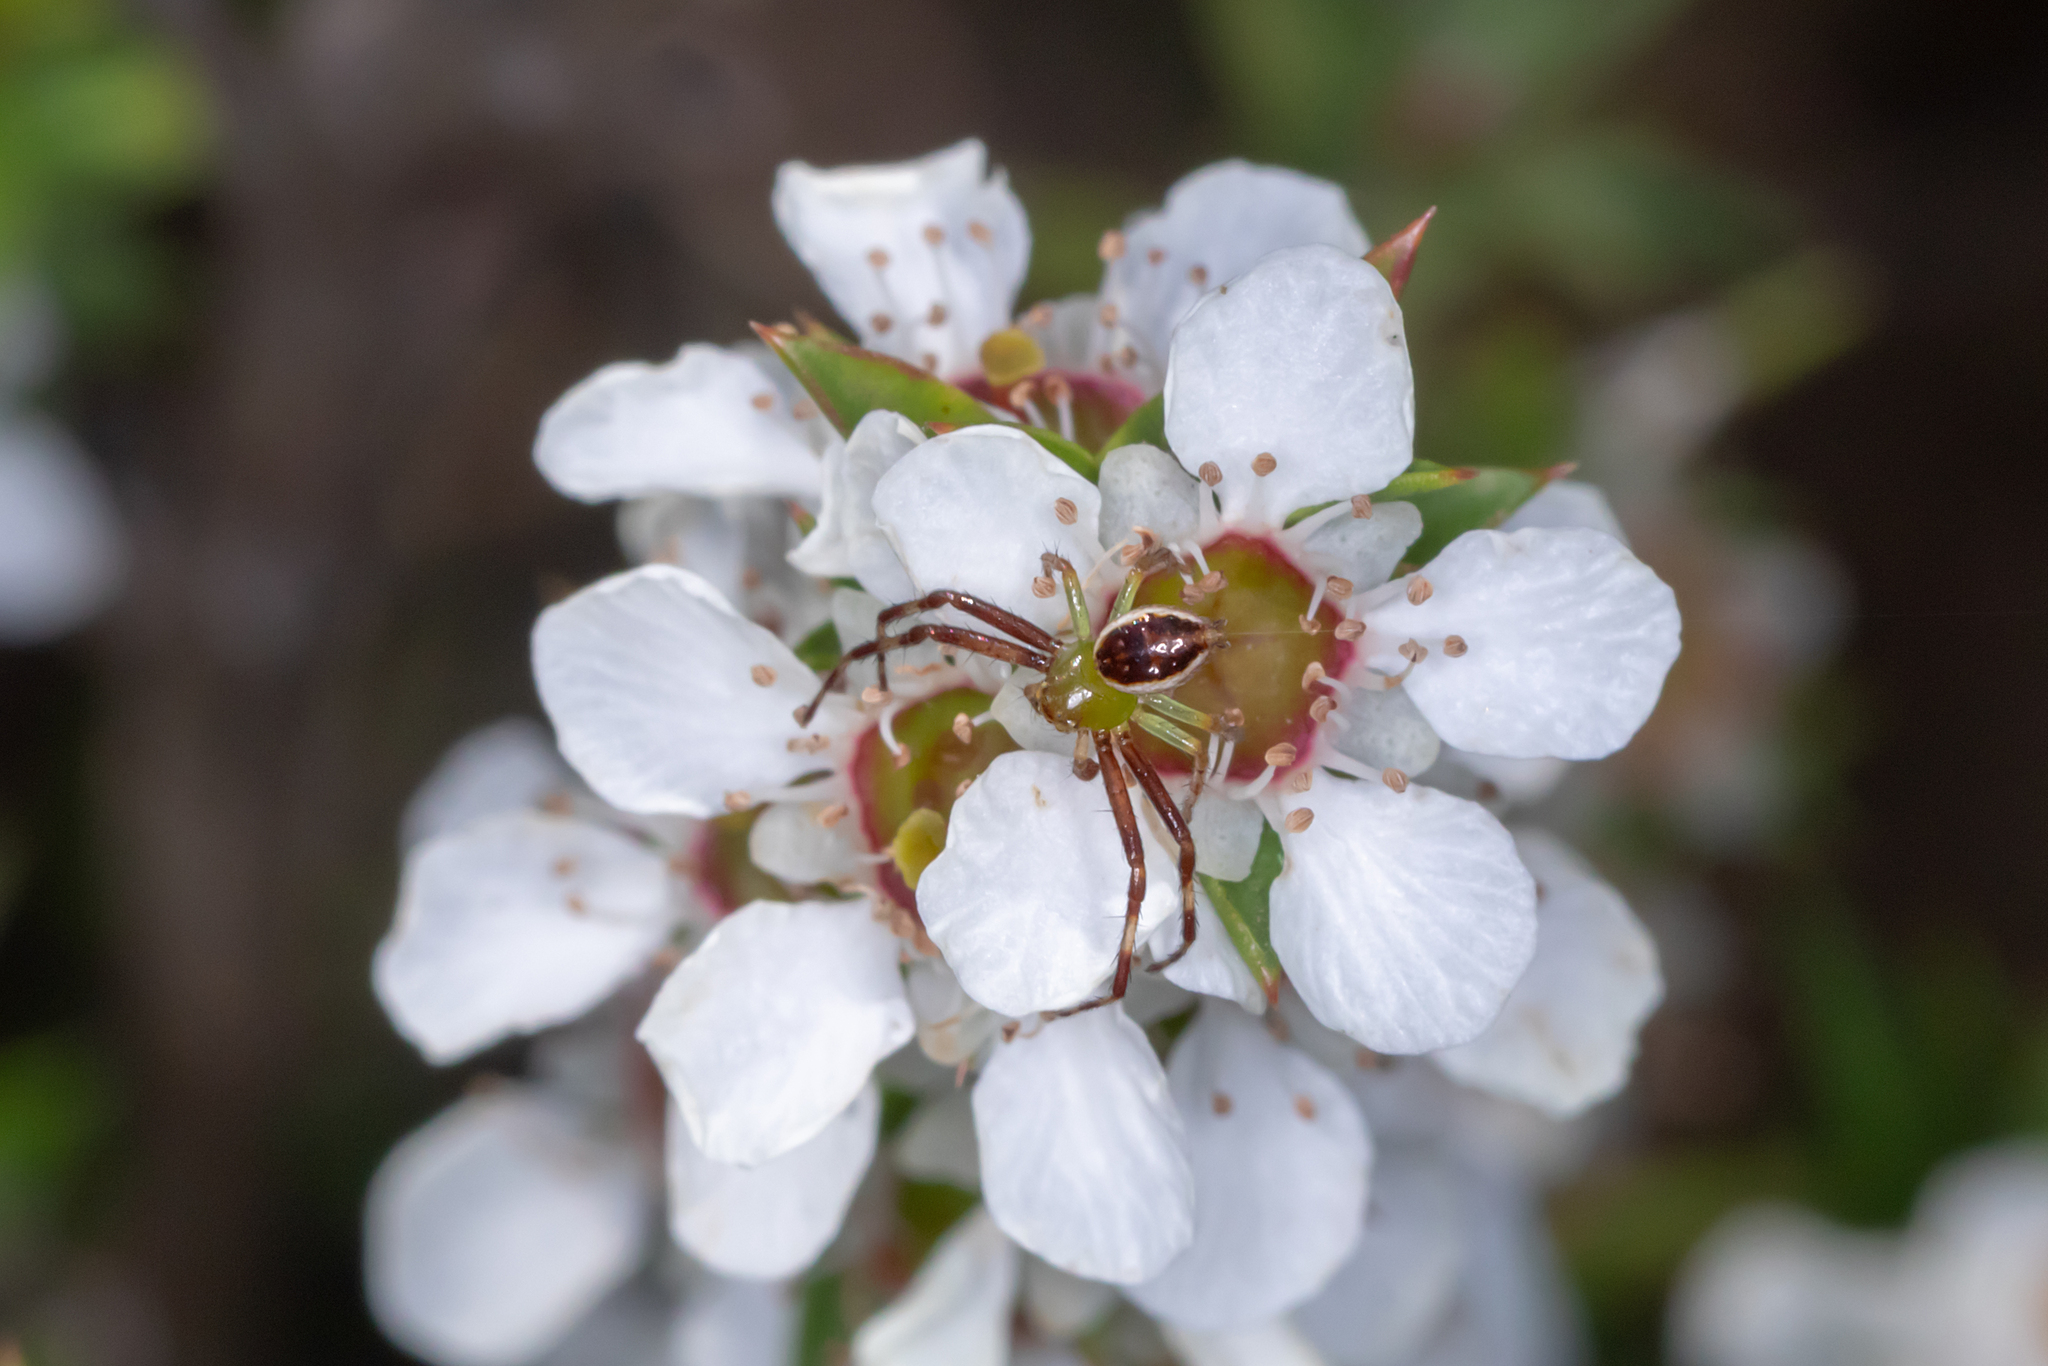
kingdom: Animalia
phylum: Arthropoda
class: Arachnida
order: Araneae
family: Thomisidae
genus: Australomisidia
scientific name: Australomisidia pilula
